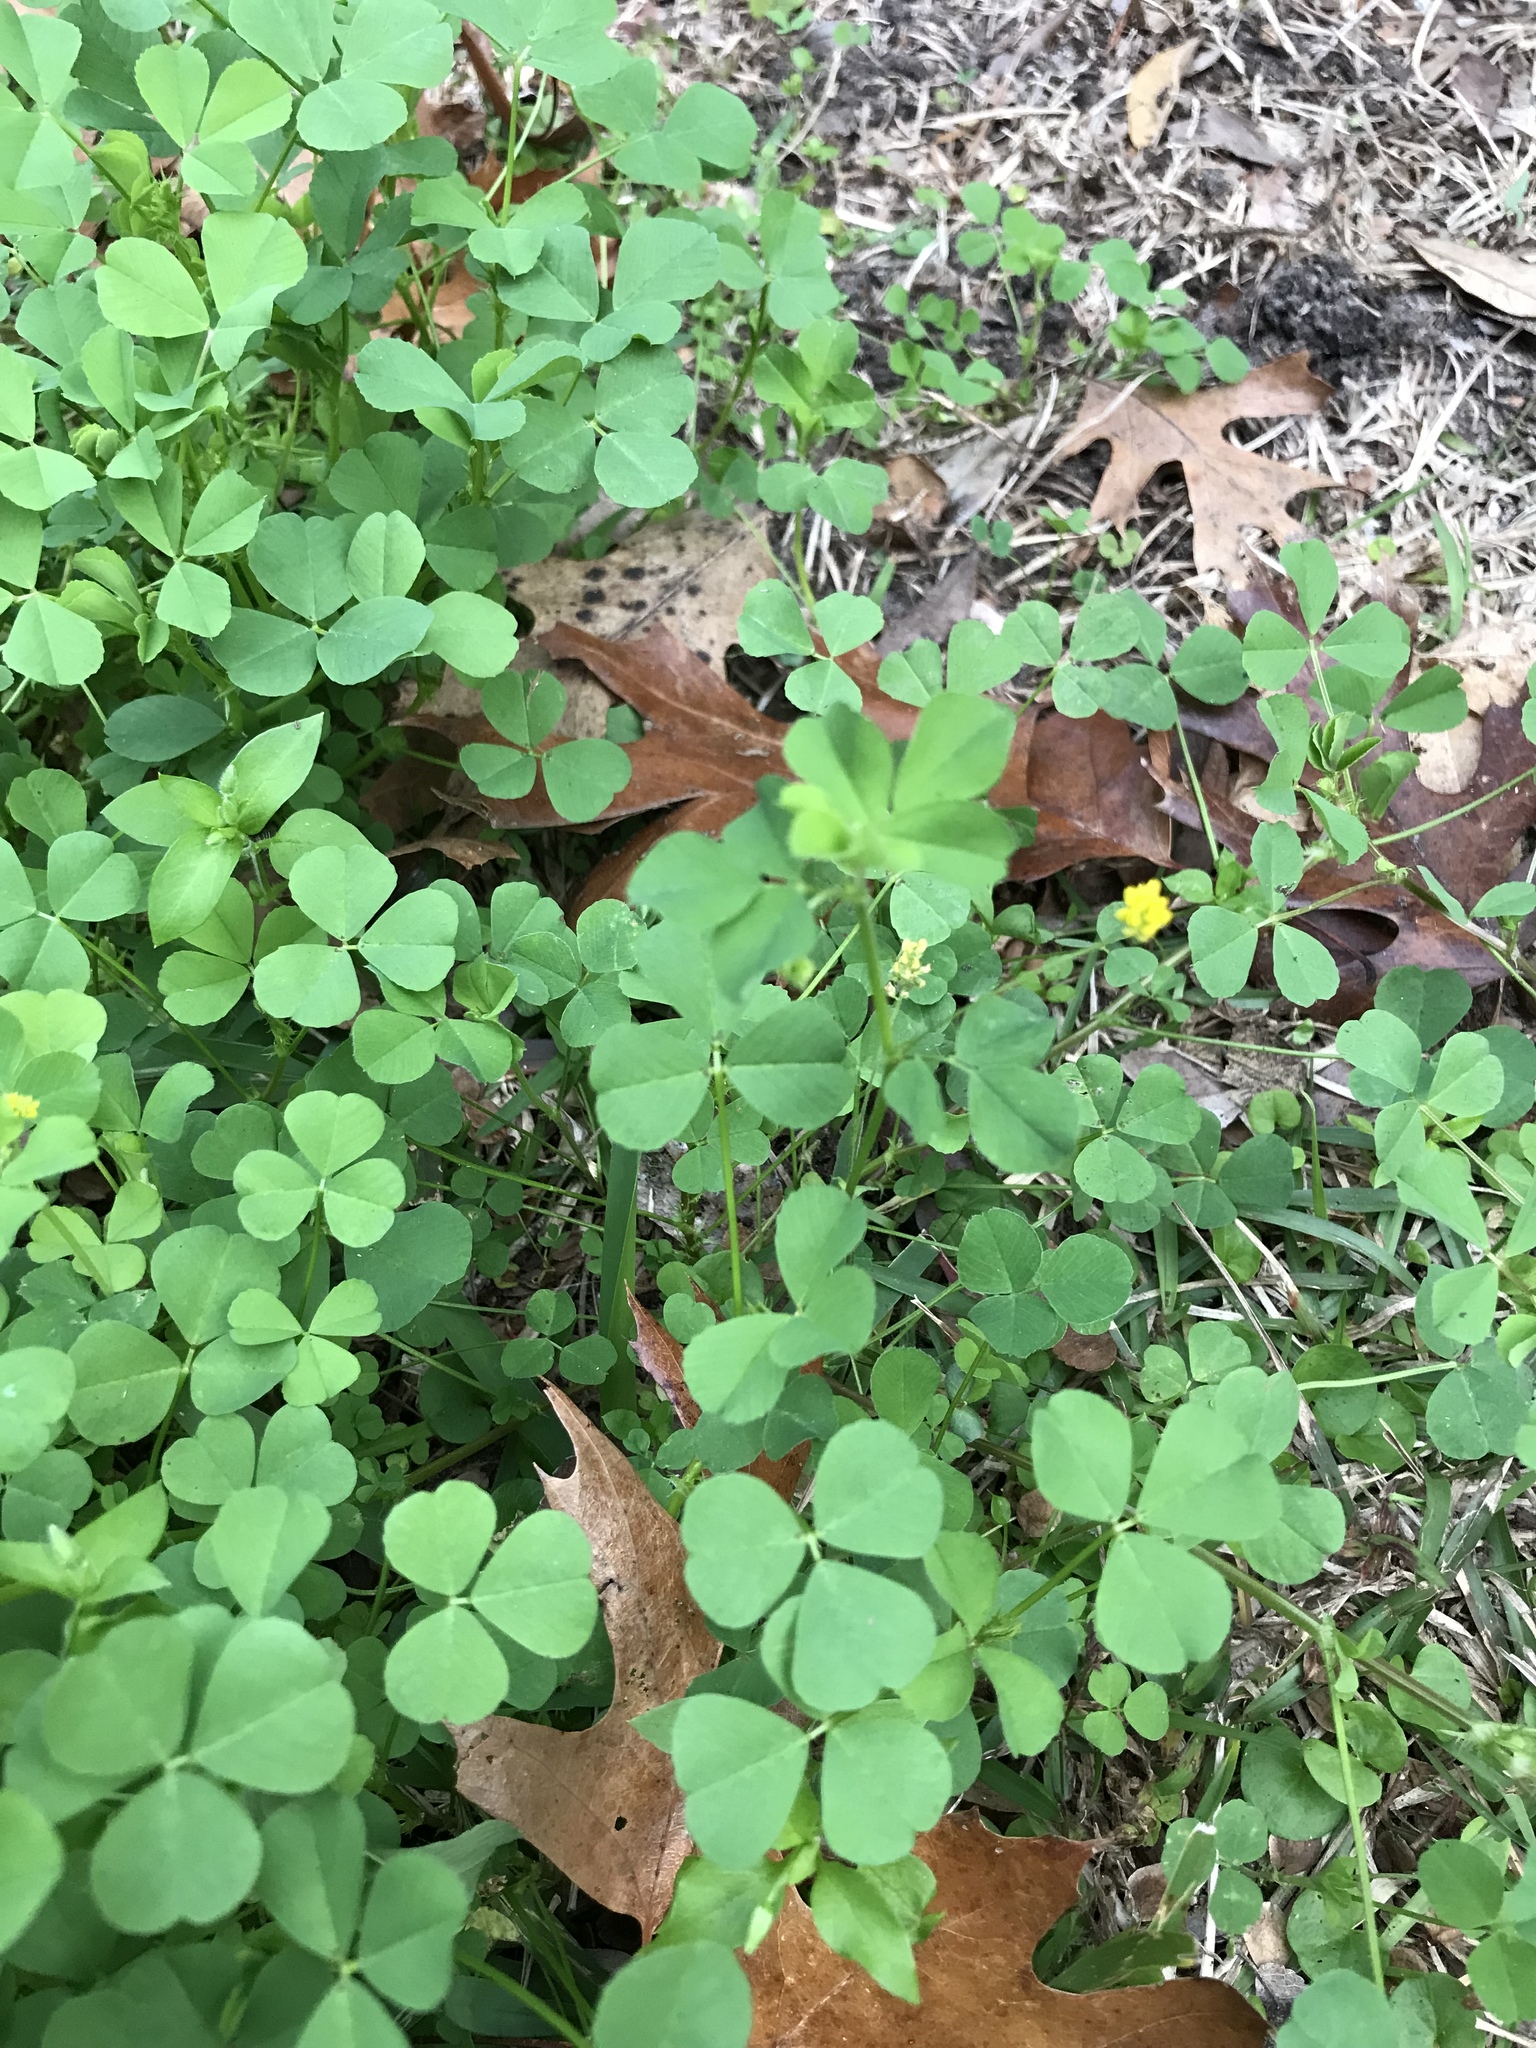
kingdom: Plantae
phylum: Tracheophyta
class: Magnoliopsida
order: Fabales
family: Fabaceae
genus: Medicago
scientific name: Medicago lupulina
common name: Black medick
